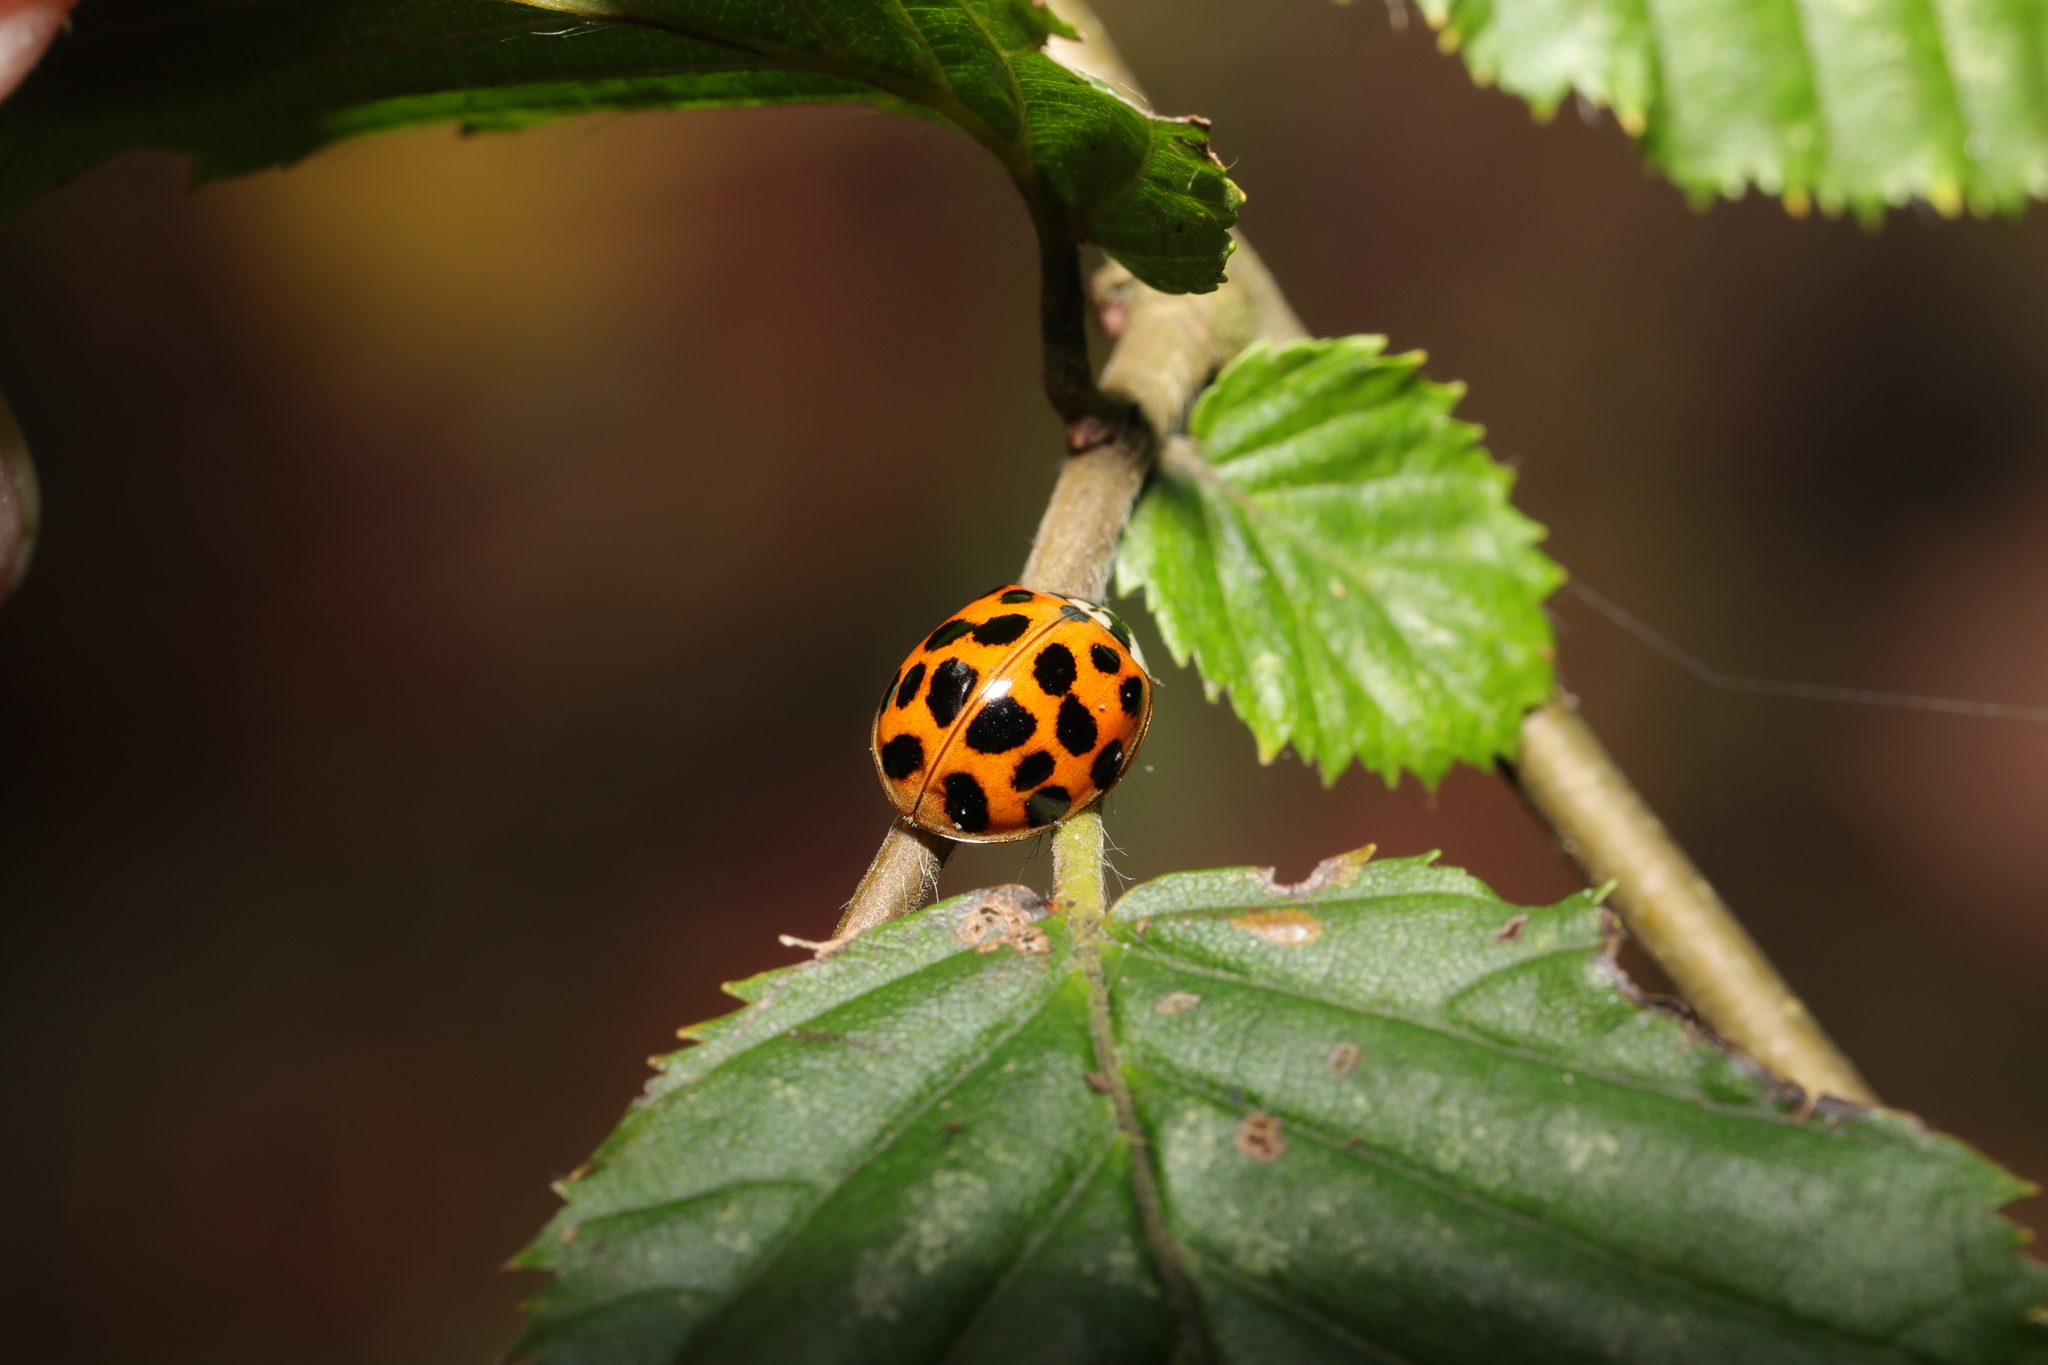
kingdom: Animalia
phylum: Arthropoda
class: Insecta
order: Coleoptera
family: Coccinellidae
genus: Harmonia
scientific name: Harmonia axyridis
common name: Harlequin ladybird
